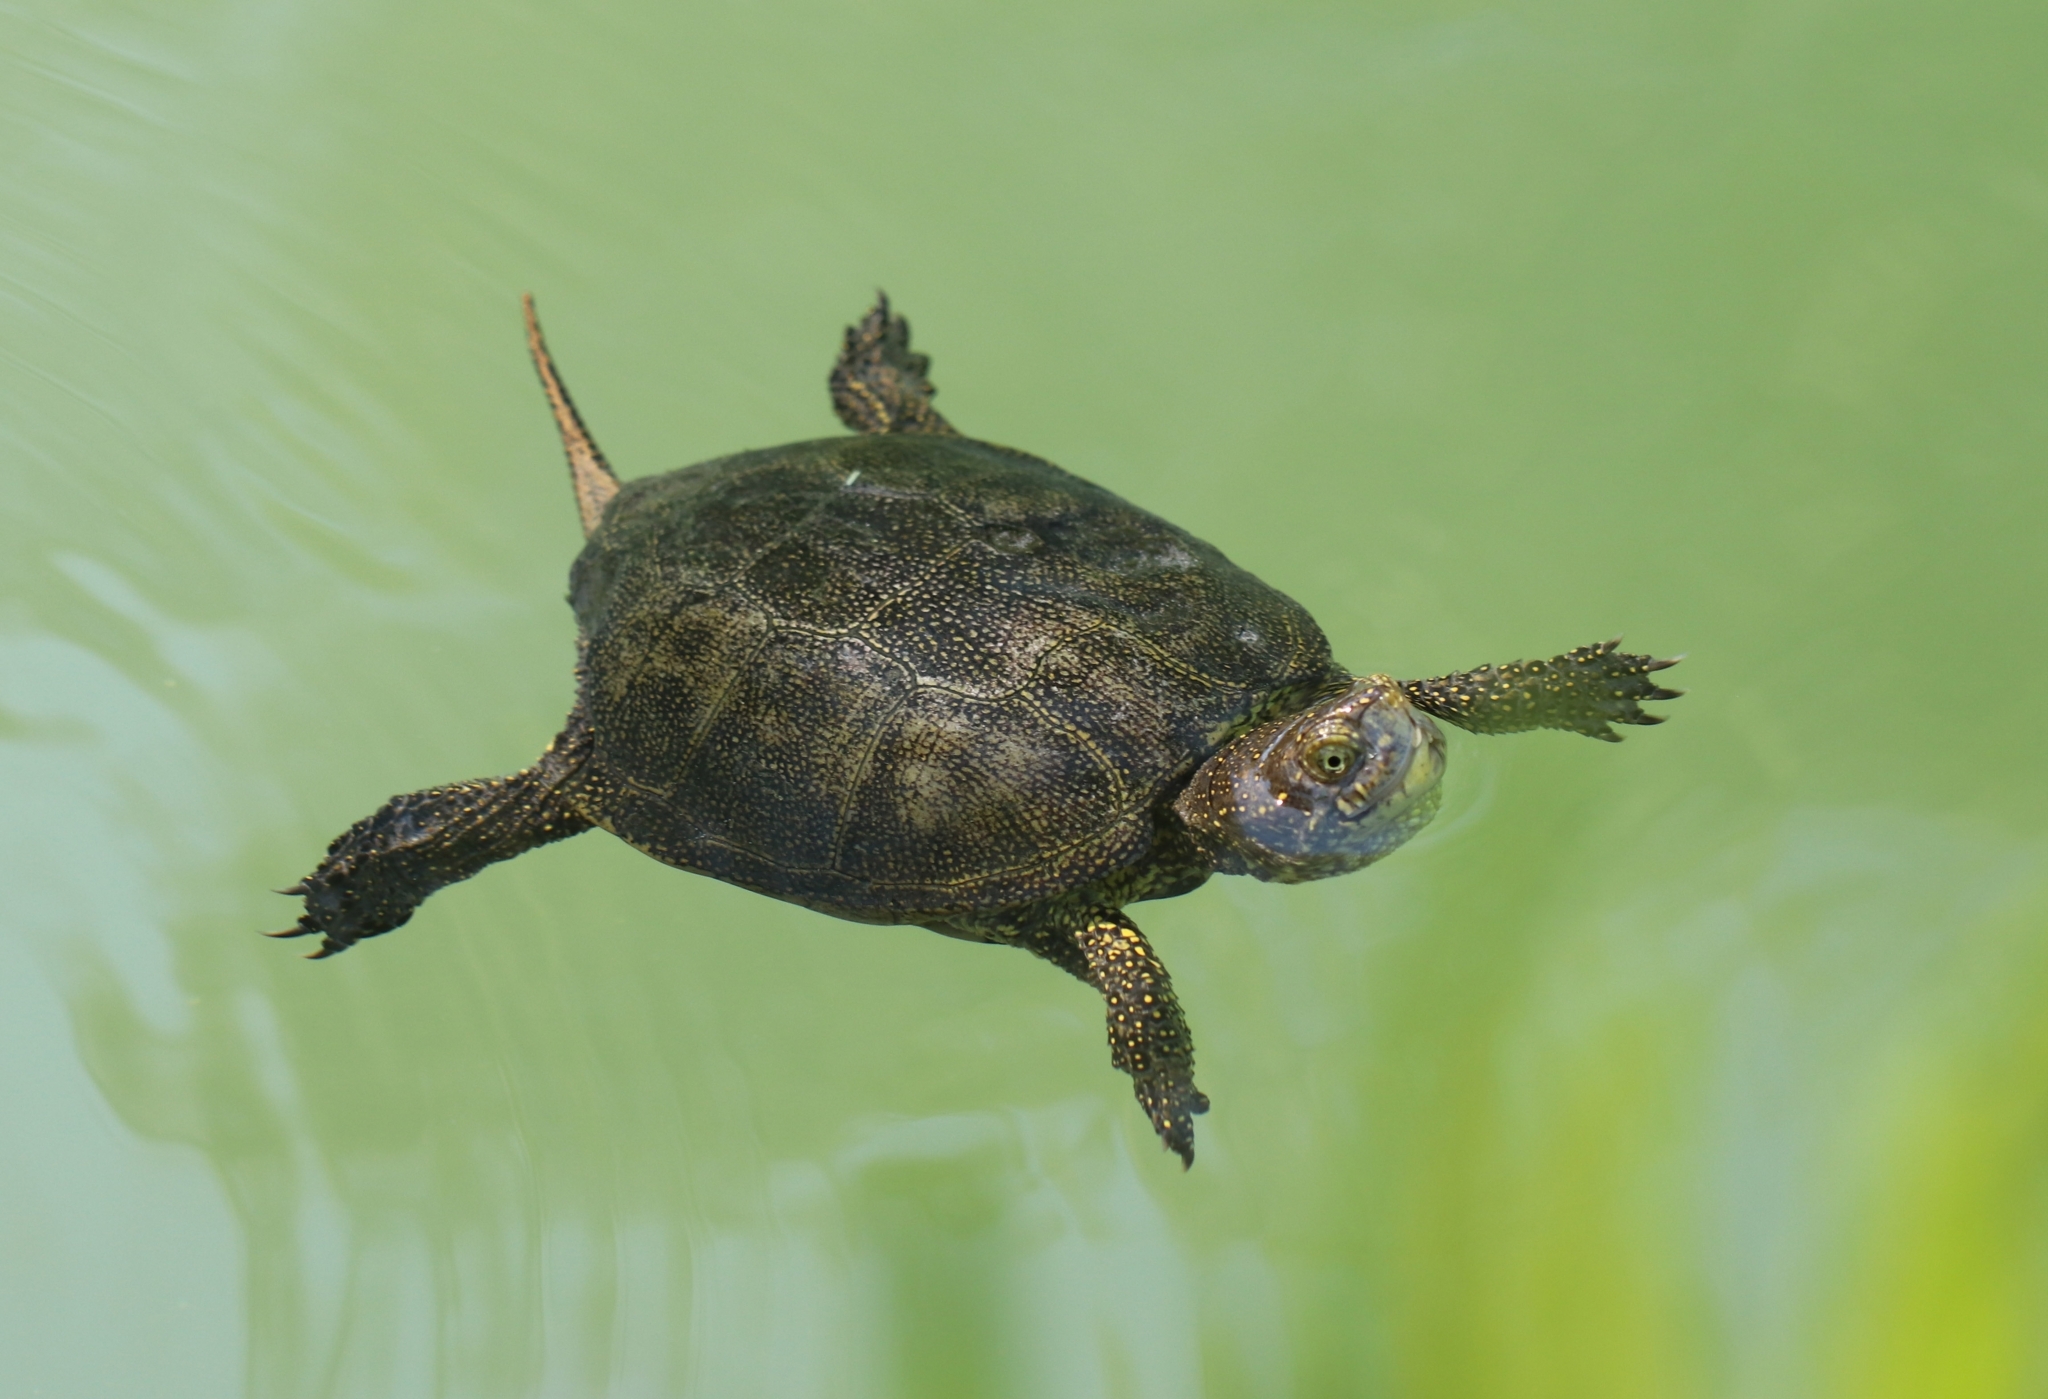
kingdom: Animalia
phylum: Chordata
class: Testudines
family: Emydidae
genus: Emys
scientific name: Emys orbicularis
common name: European pond turtle
